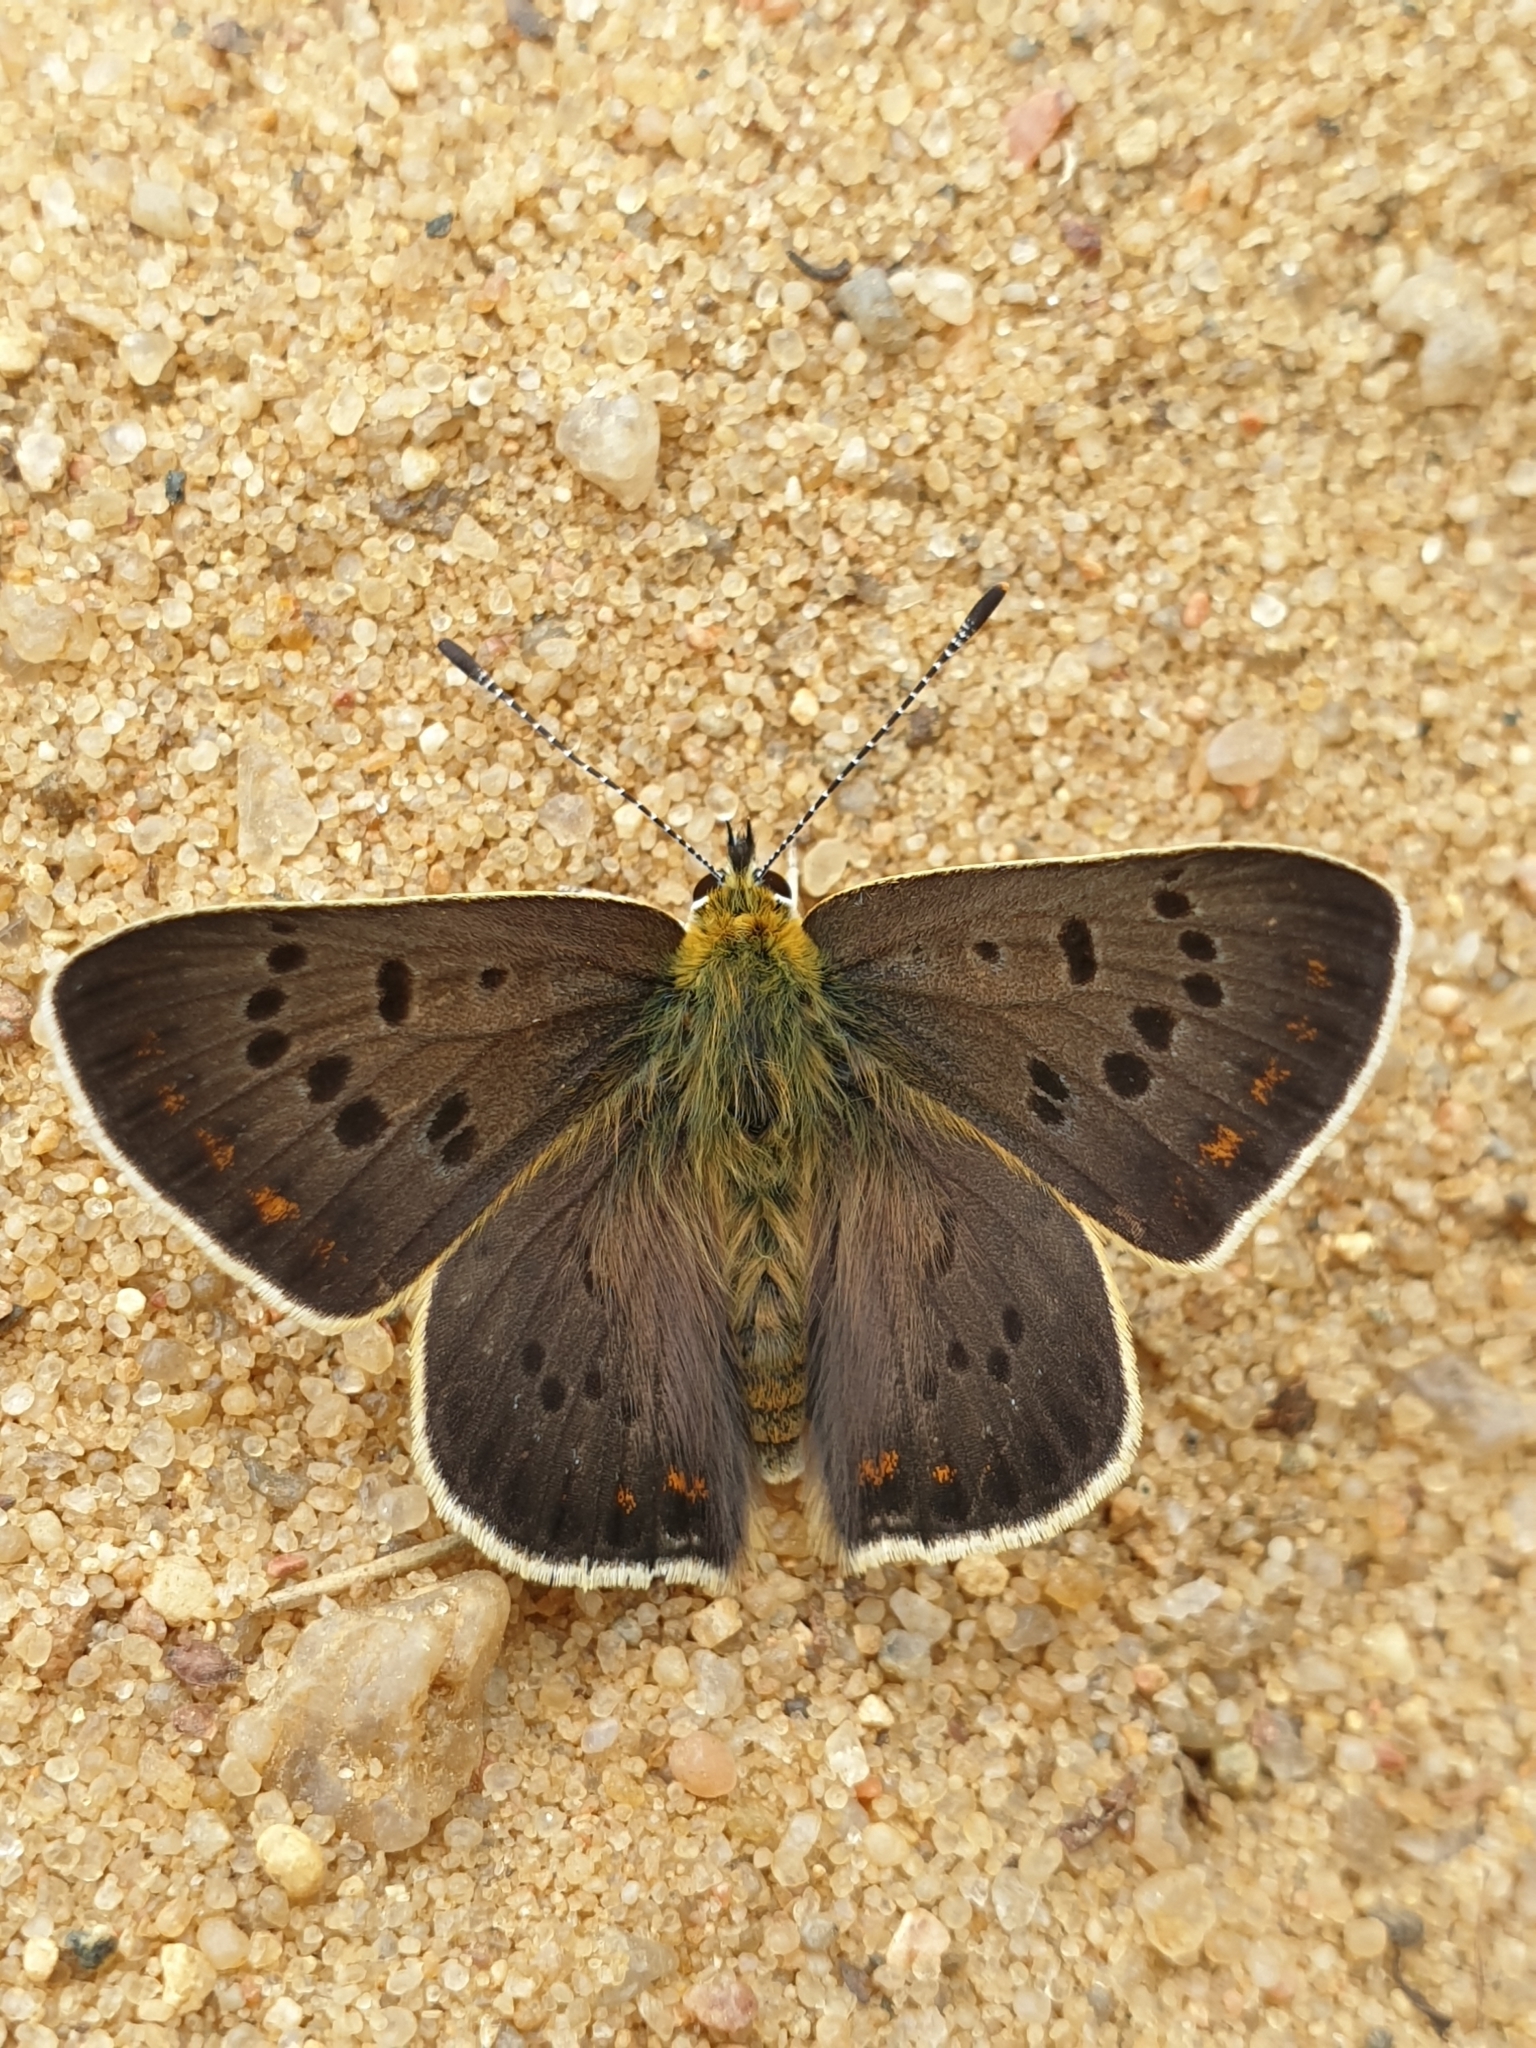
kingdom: Animalia
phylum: Arthropoda
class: Insecta
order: Lepidoptera
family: Lycaenidae
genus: Loweia
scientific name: Loweia tityrus
